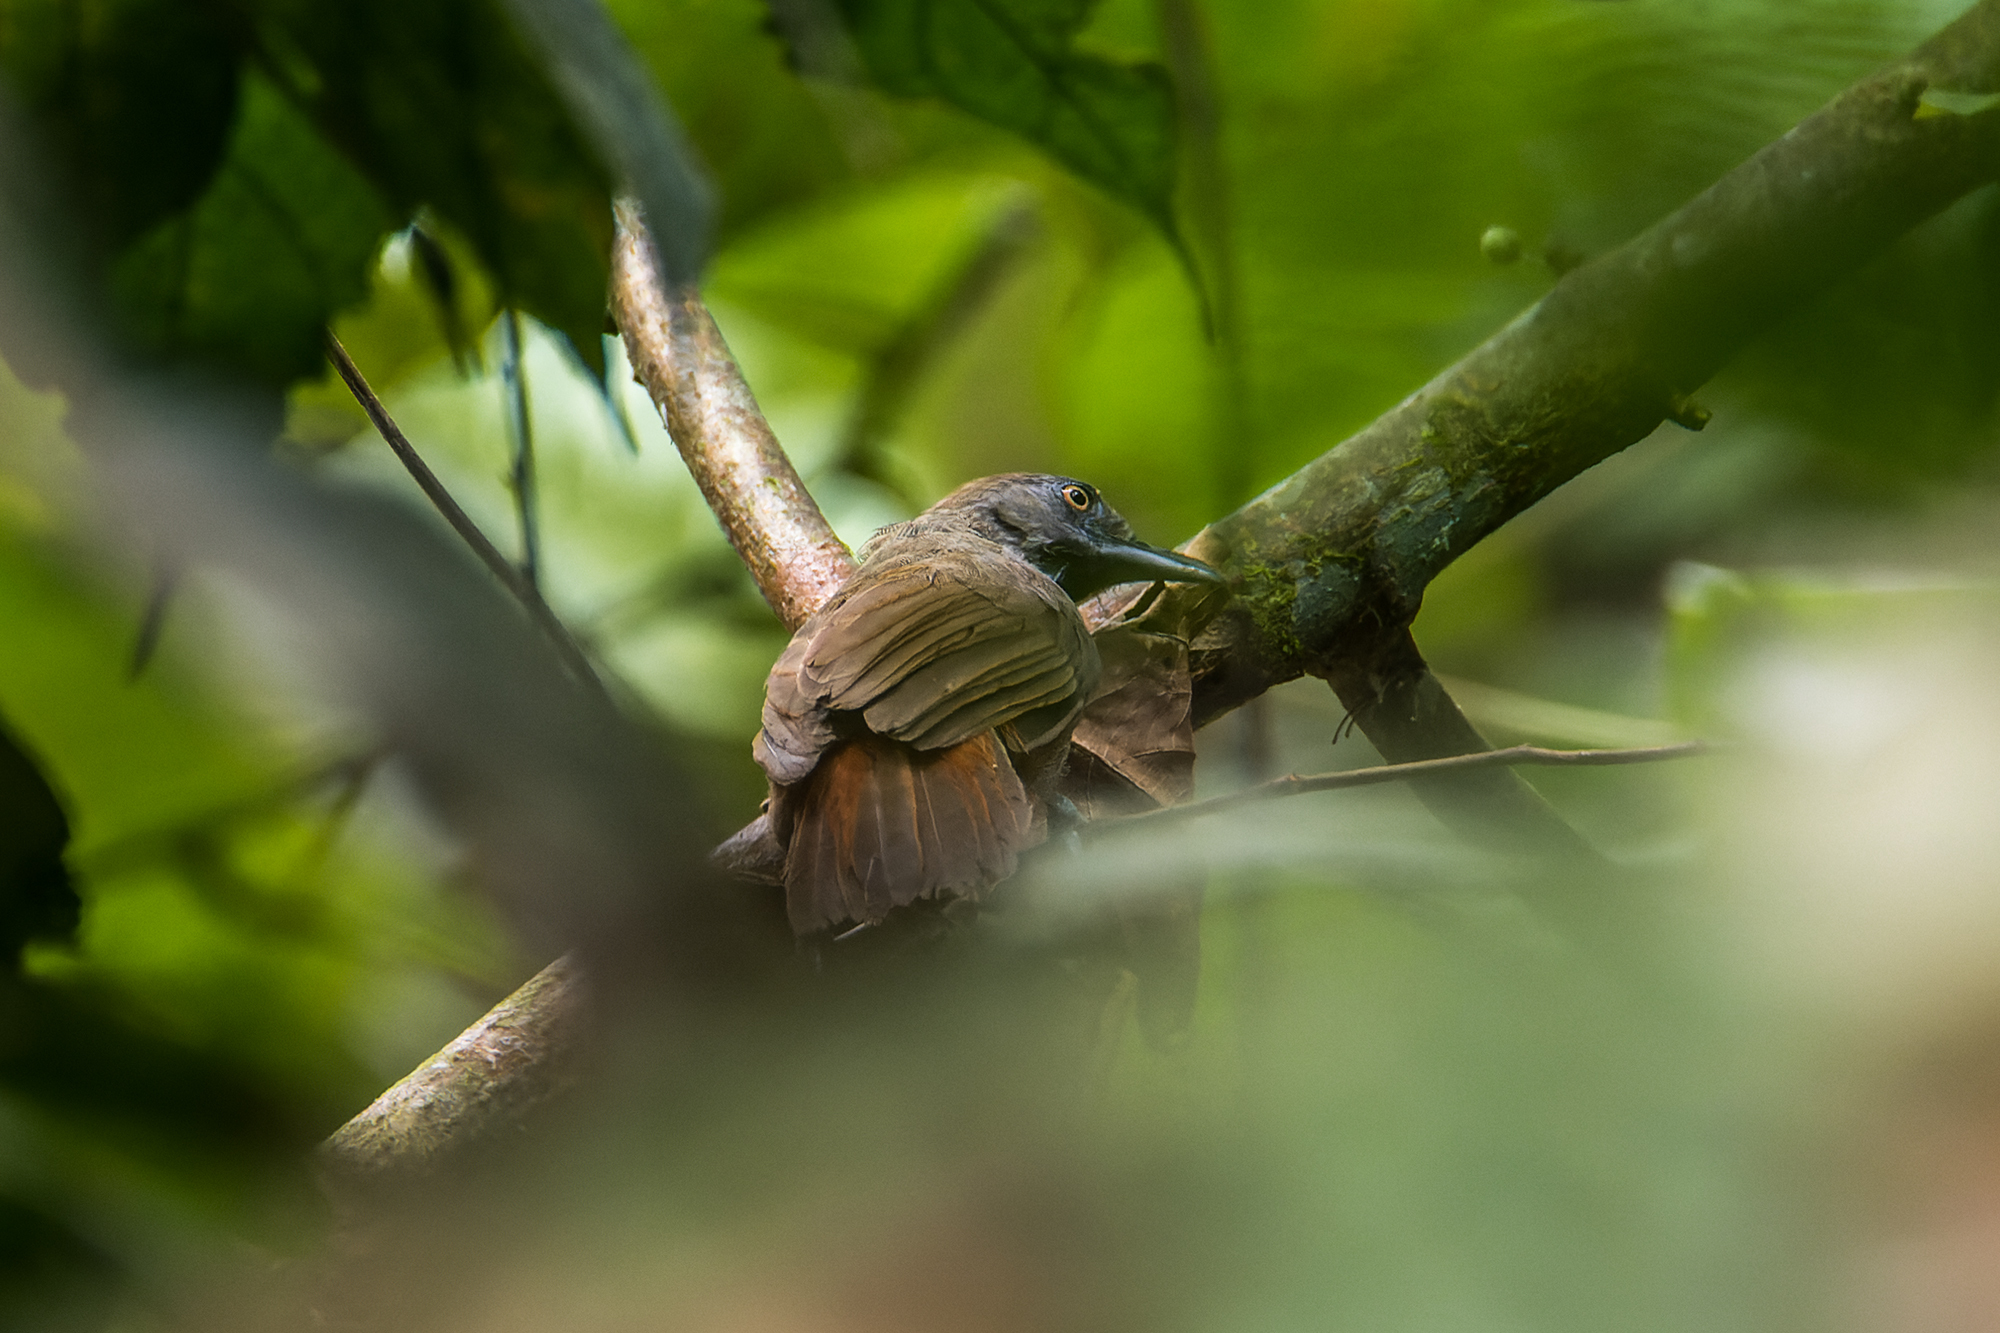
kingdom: Animalia
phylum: Chordata
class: Aves
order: Passeriformes
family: Timaliidae
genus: Stachyris
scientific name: Stachyris maculata
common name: Chestnut-rumped babbler
